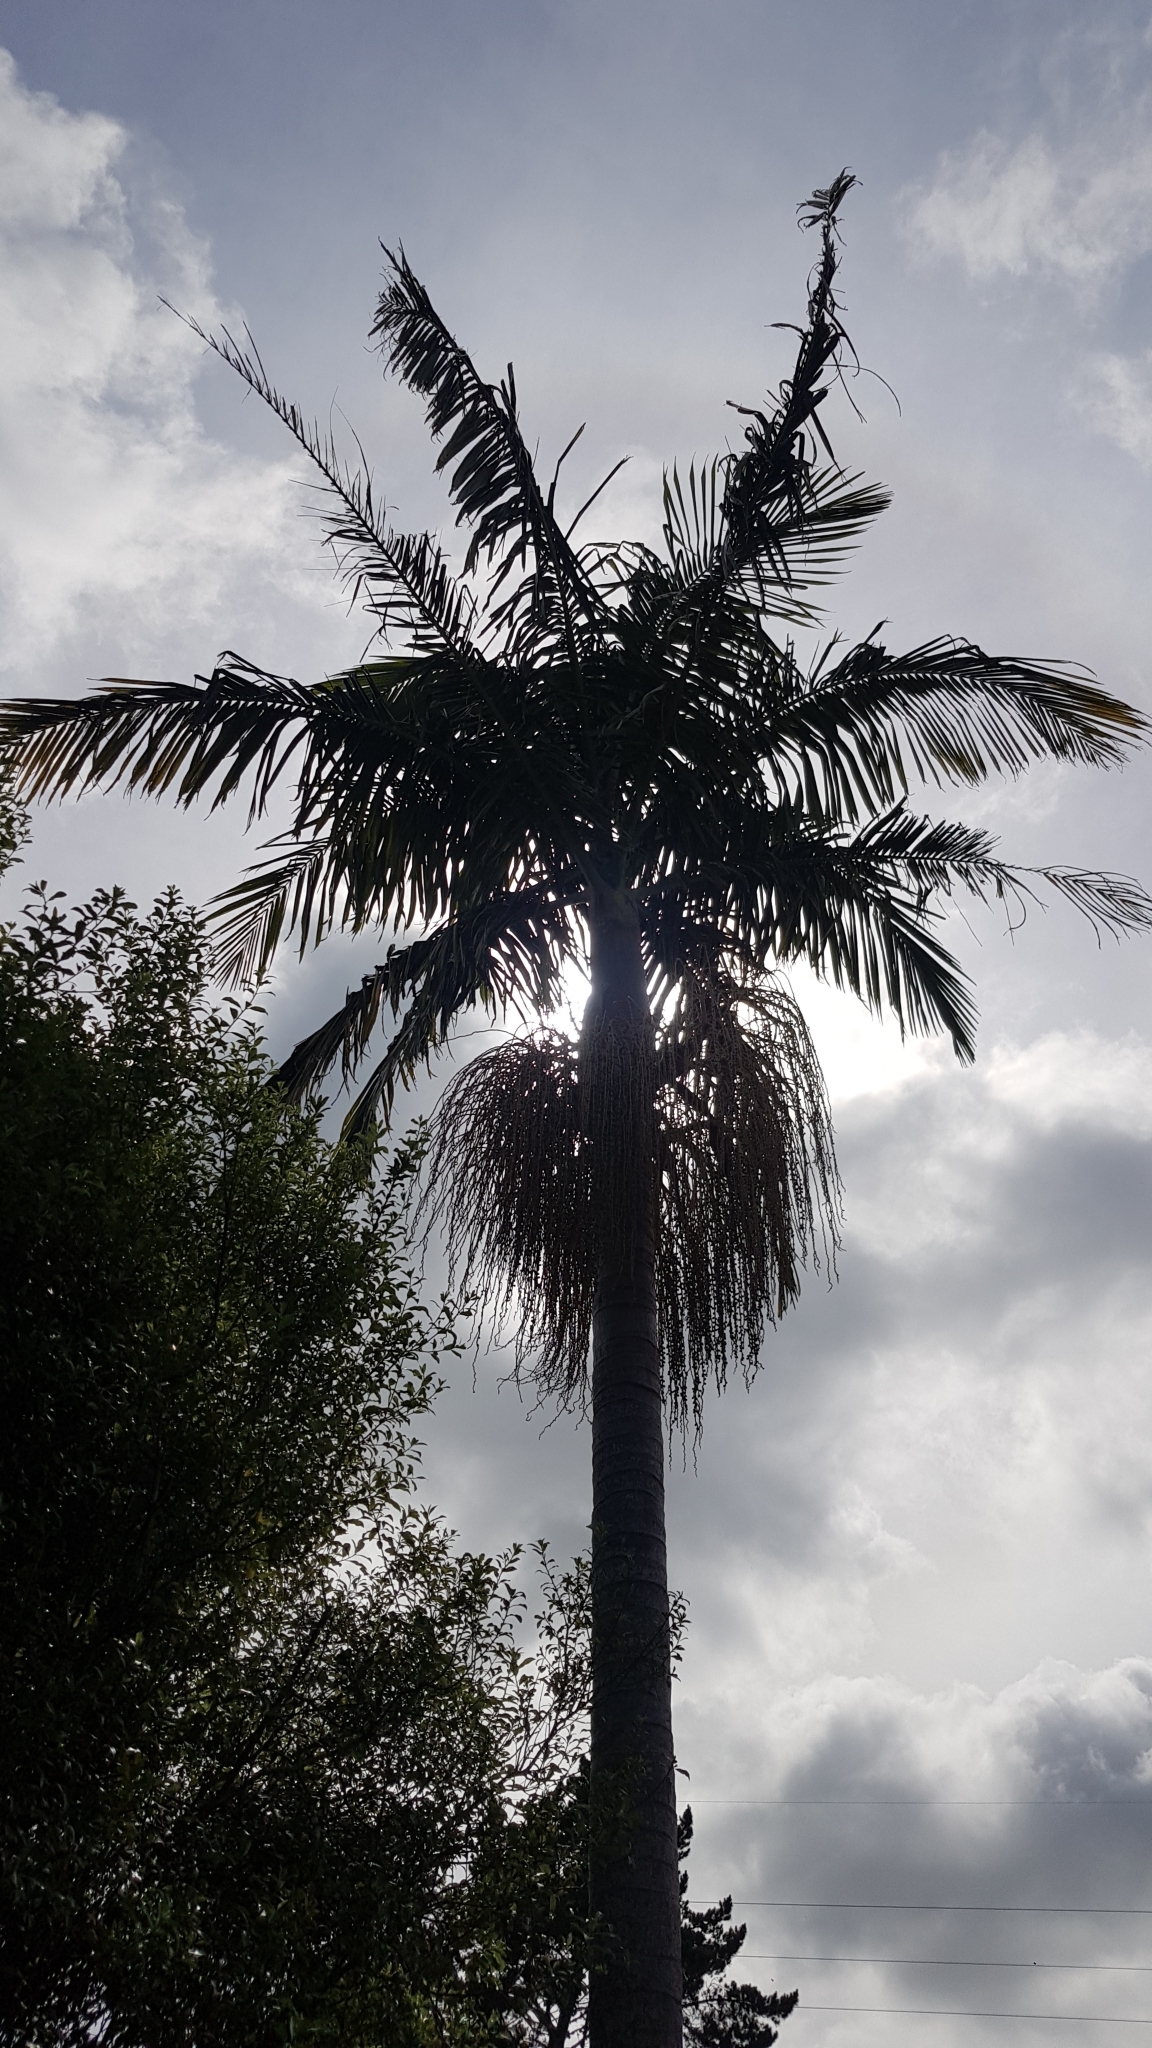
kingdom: Plantae
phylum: Tracheophyta
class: Liliopsida
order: Arecales
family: Arecaceae
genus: Archontophoenix
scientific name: Archontophoenix cunninghamiana
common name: Piccabeen bangalow palm
